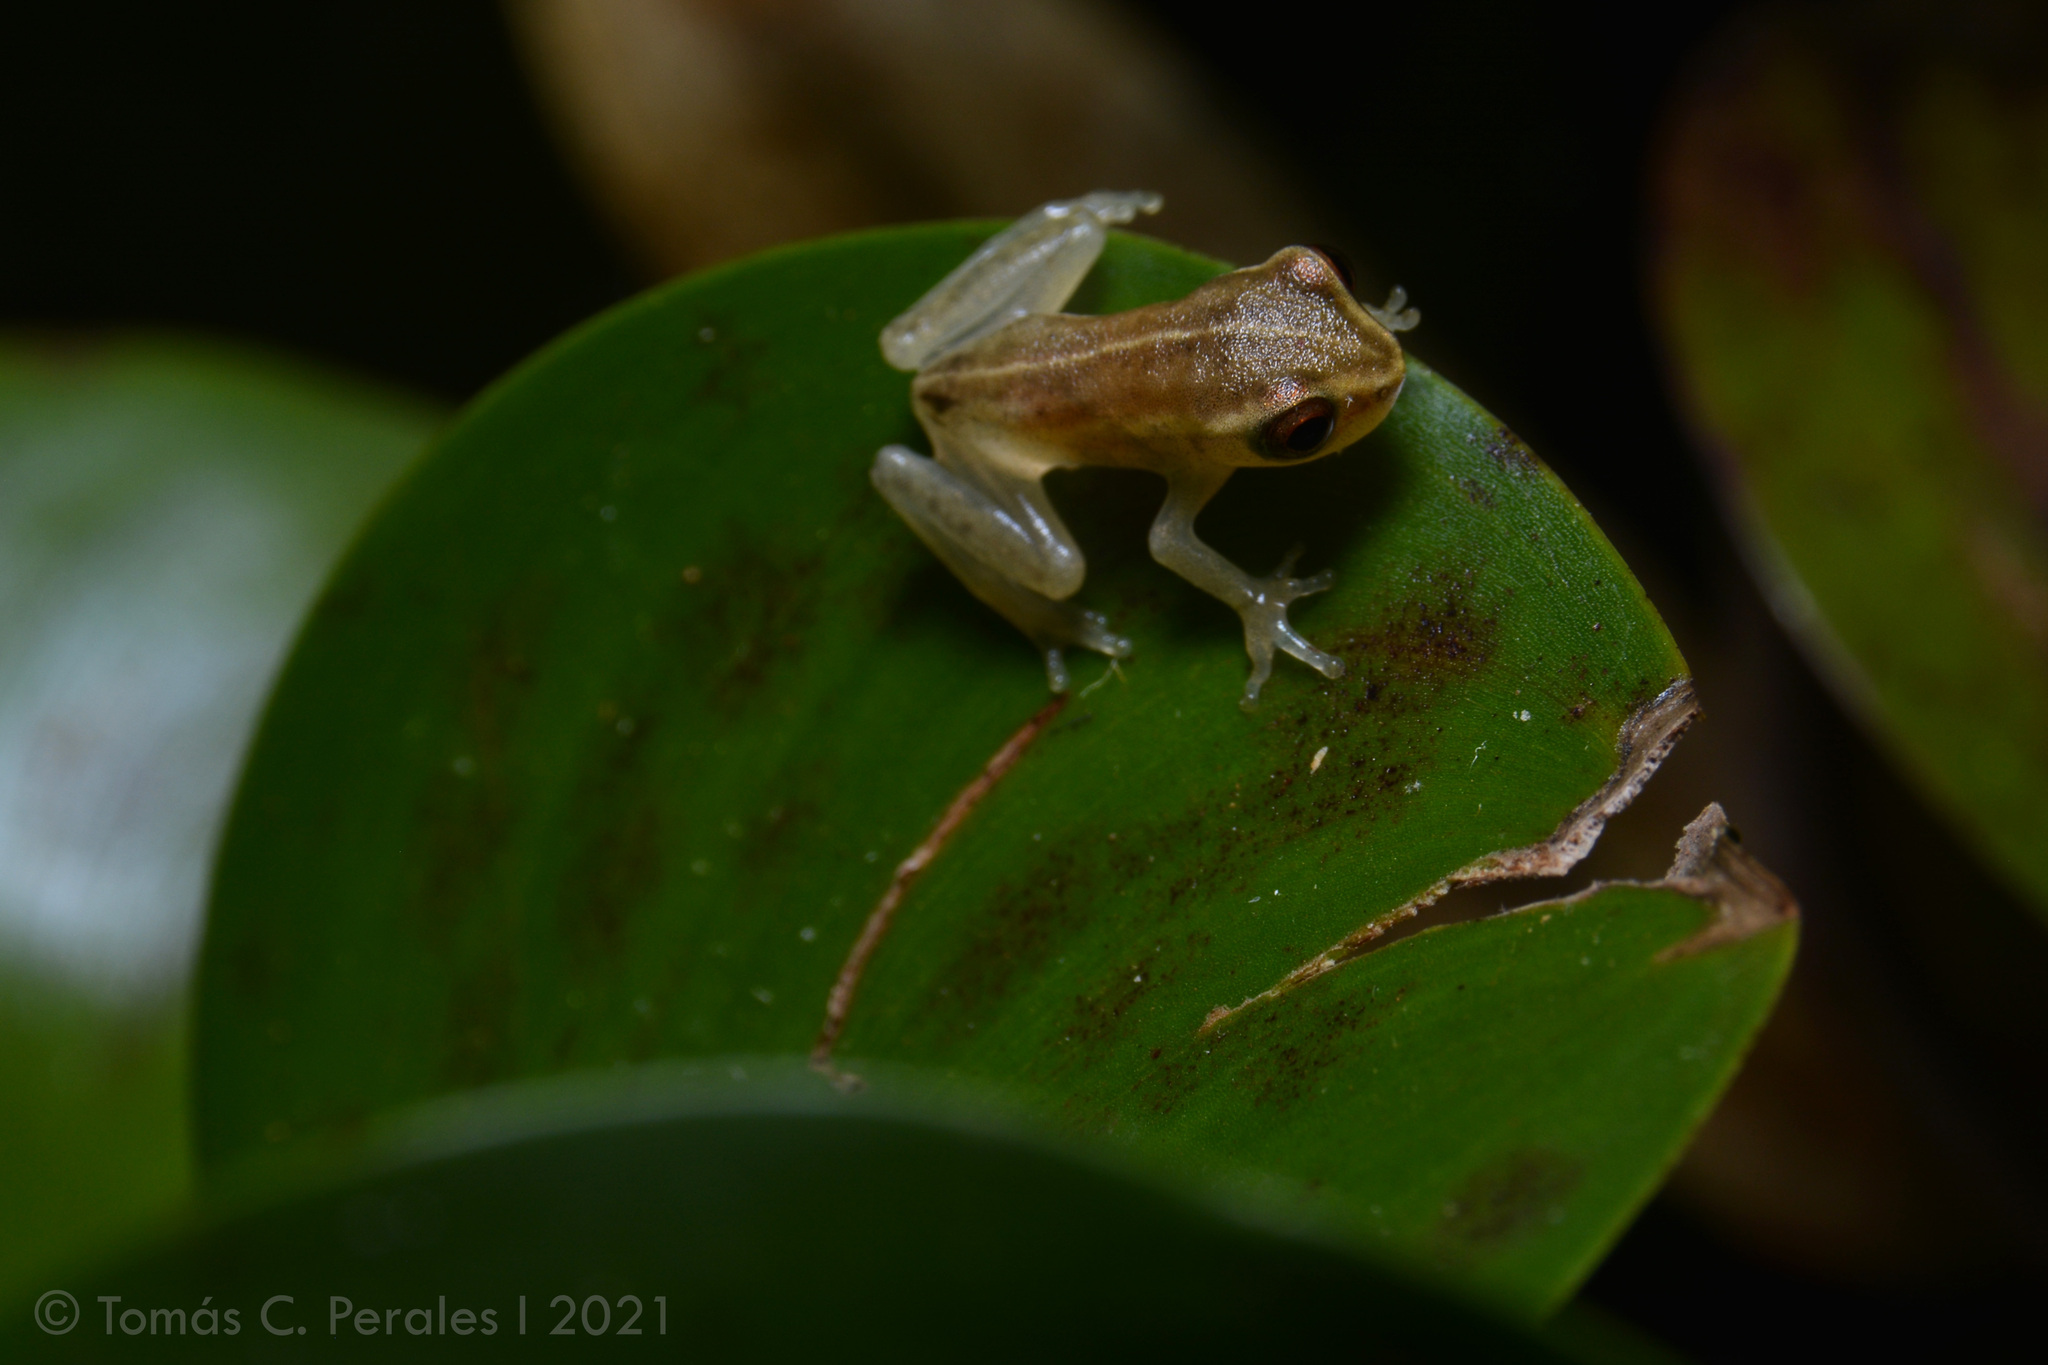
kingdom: Animalia
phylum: Chordata
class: Amphibia
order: Anura
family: Hylidae
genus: Dendropsophus
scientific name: Dendropsophus
